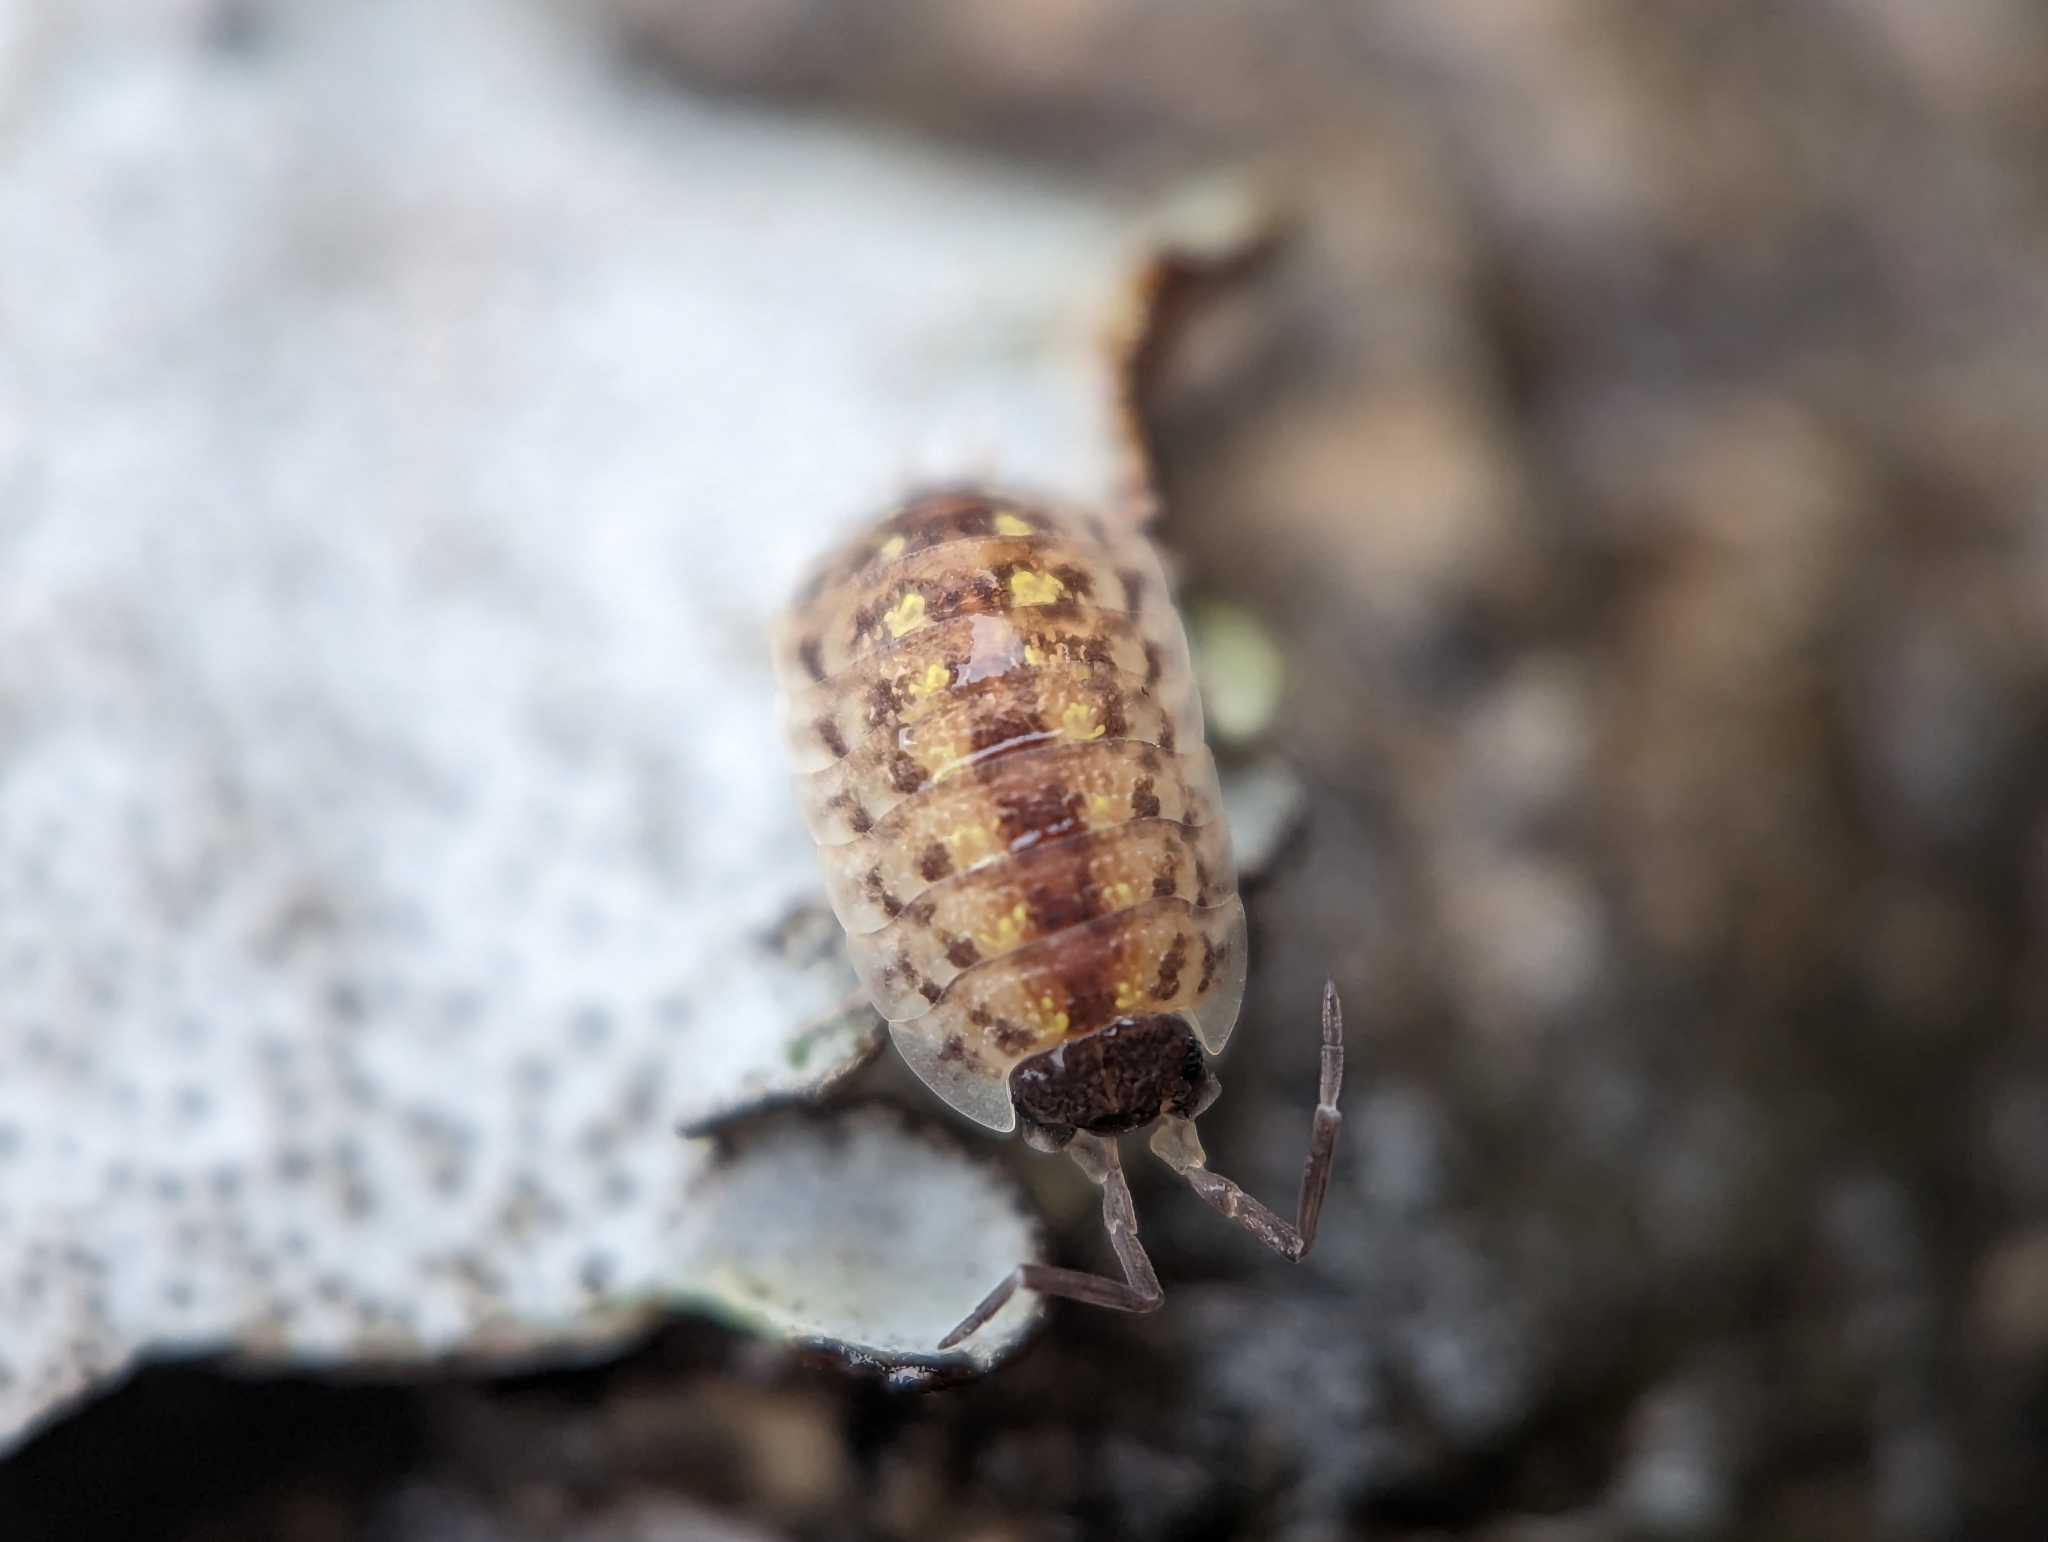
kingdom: Animalia
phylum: Arthropoda
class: Malacostraca
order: Isopoda
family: Porcellionidae
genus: Porcellio
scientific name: Porcellio spinicornis
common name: Painted woodlouse
